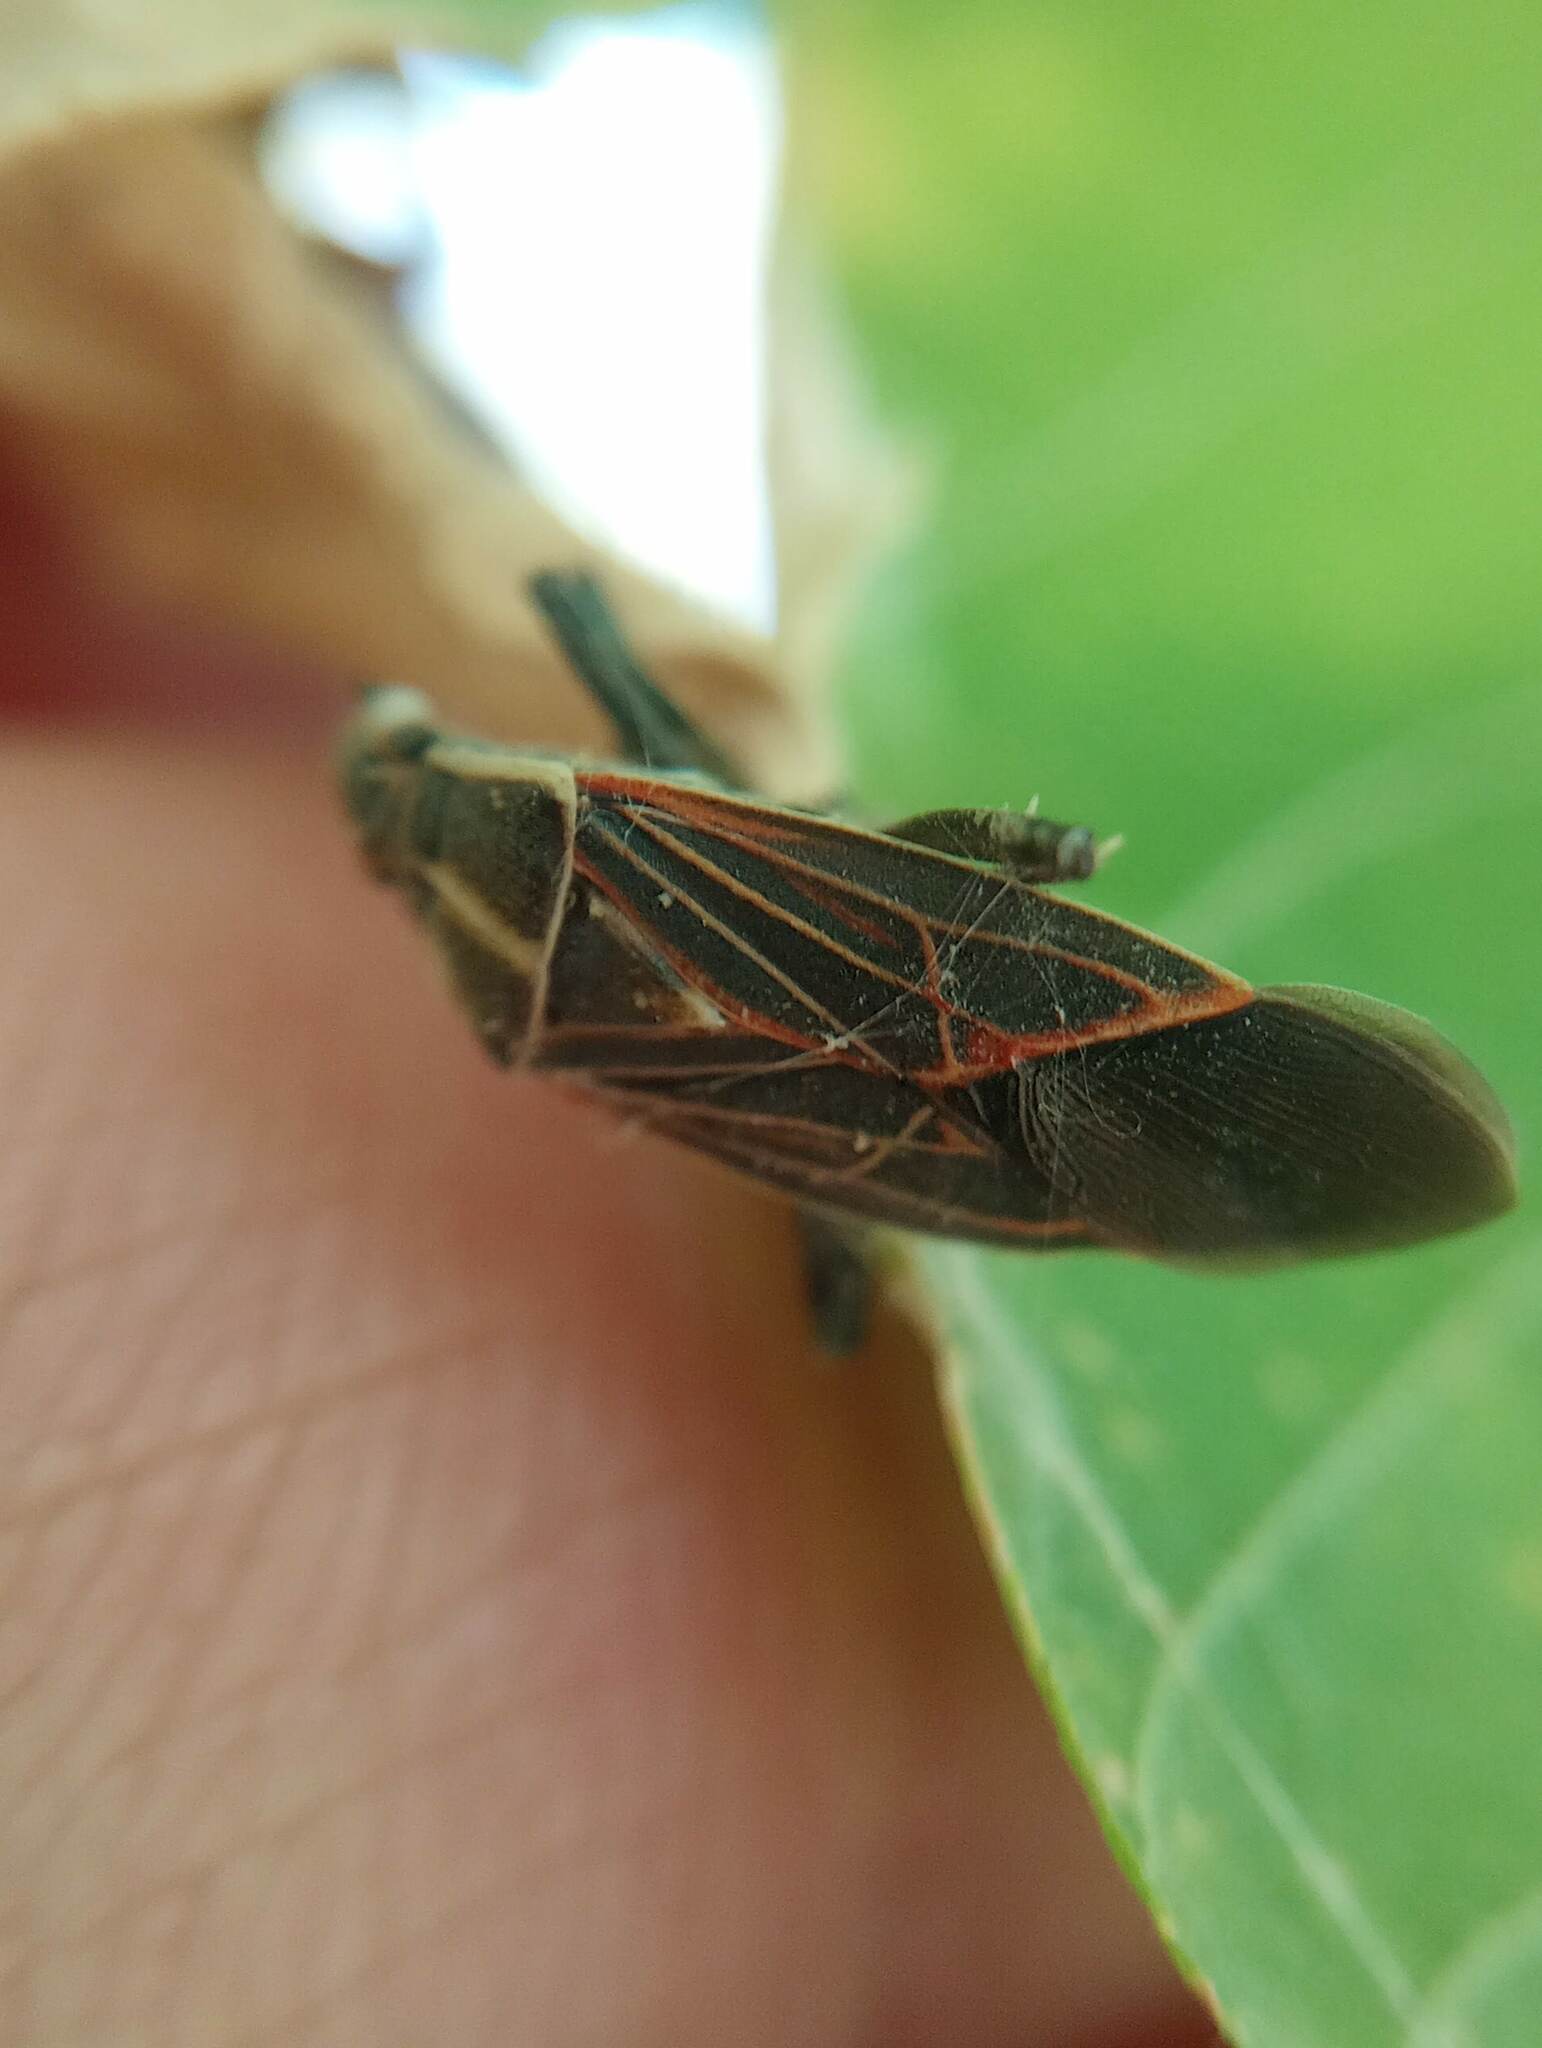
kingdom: Animalia
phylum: Arthropoda
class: Insecta
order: Hemiptera
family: Rhopalidae
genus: Boisea
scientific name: Boisea rubrolineata
